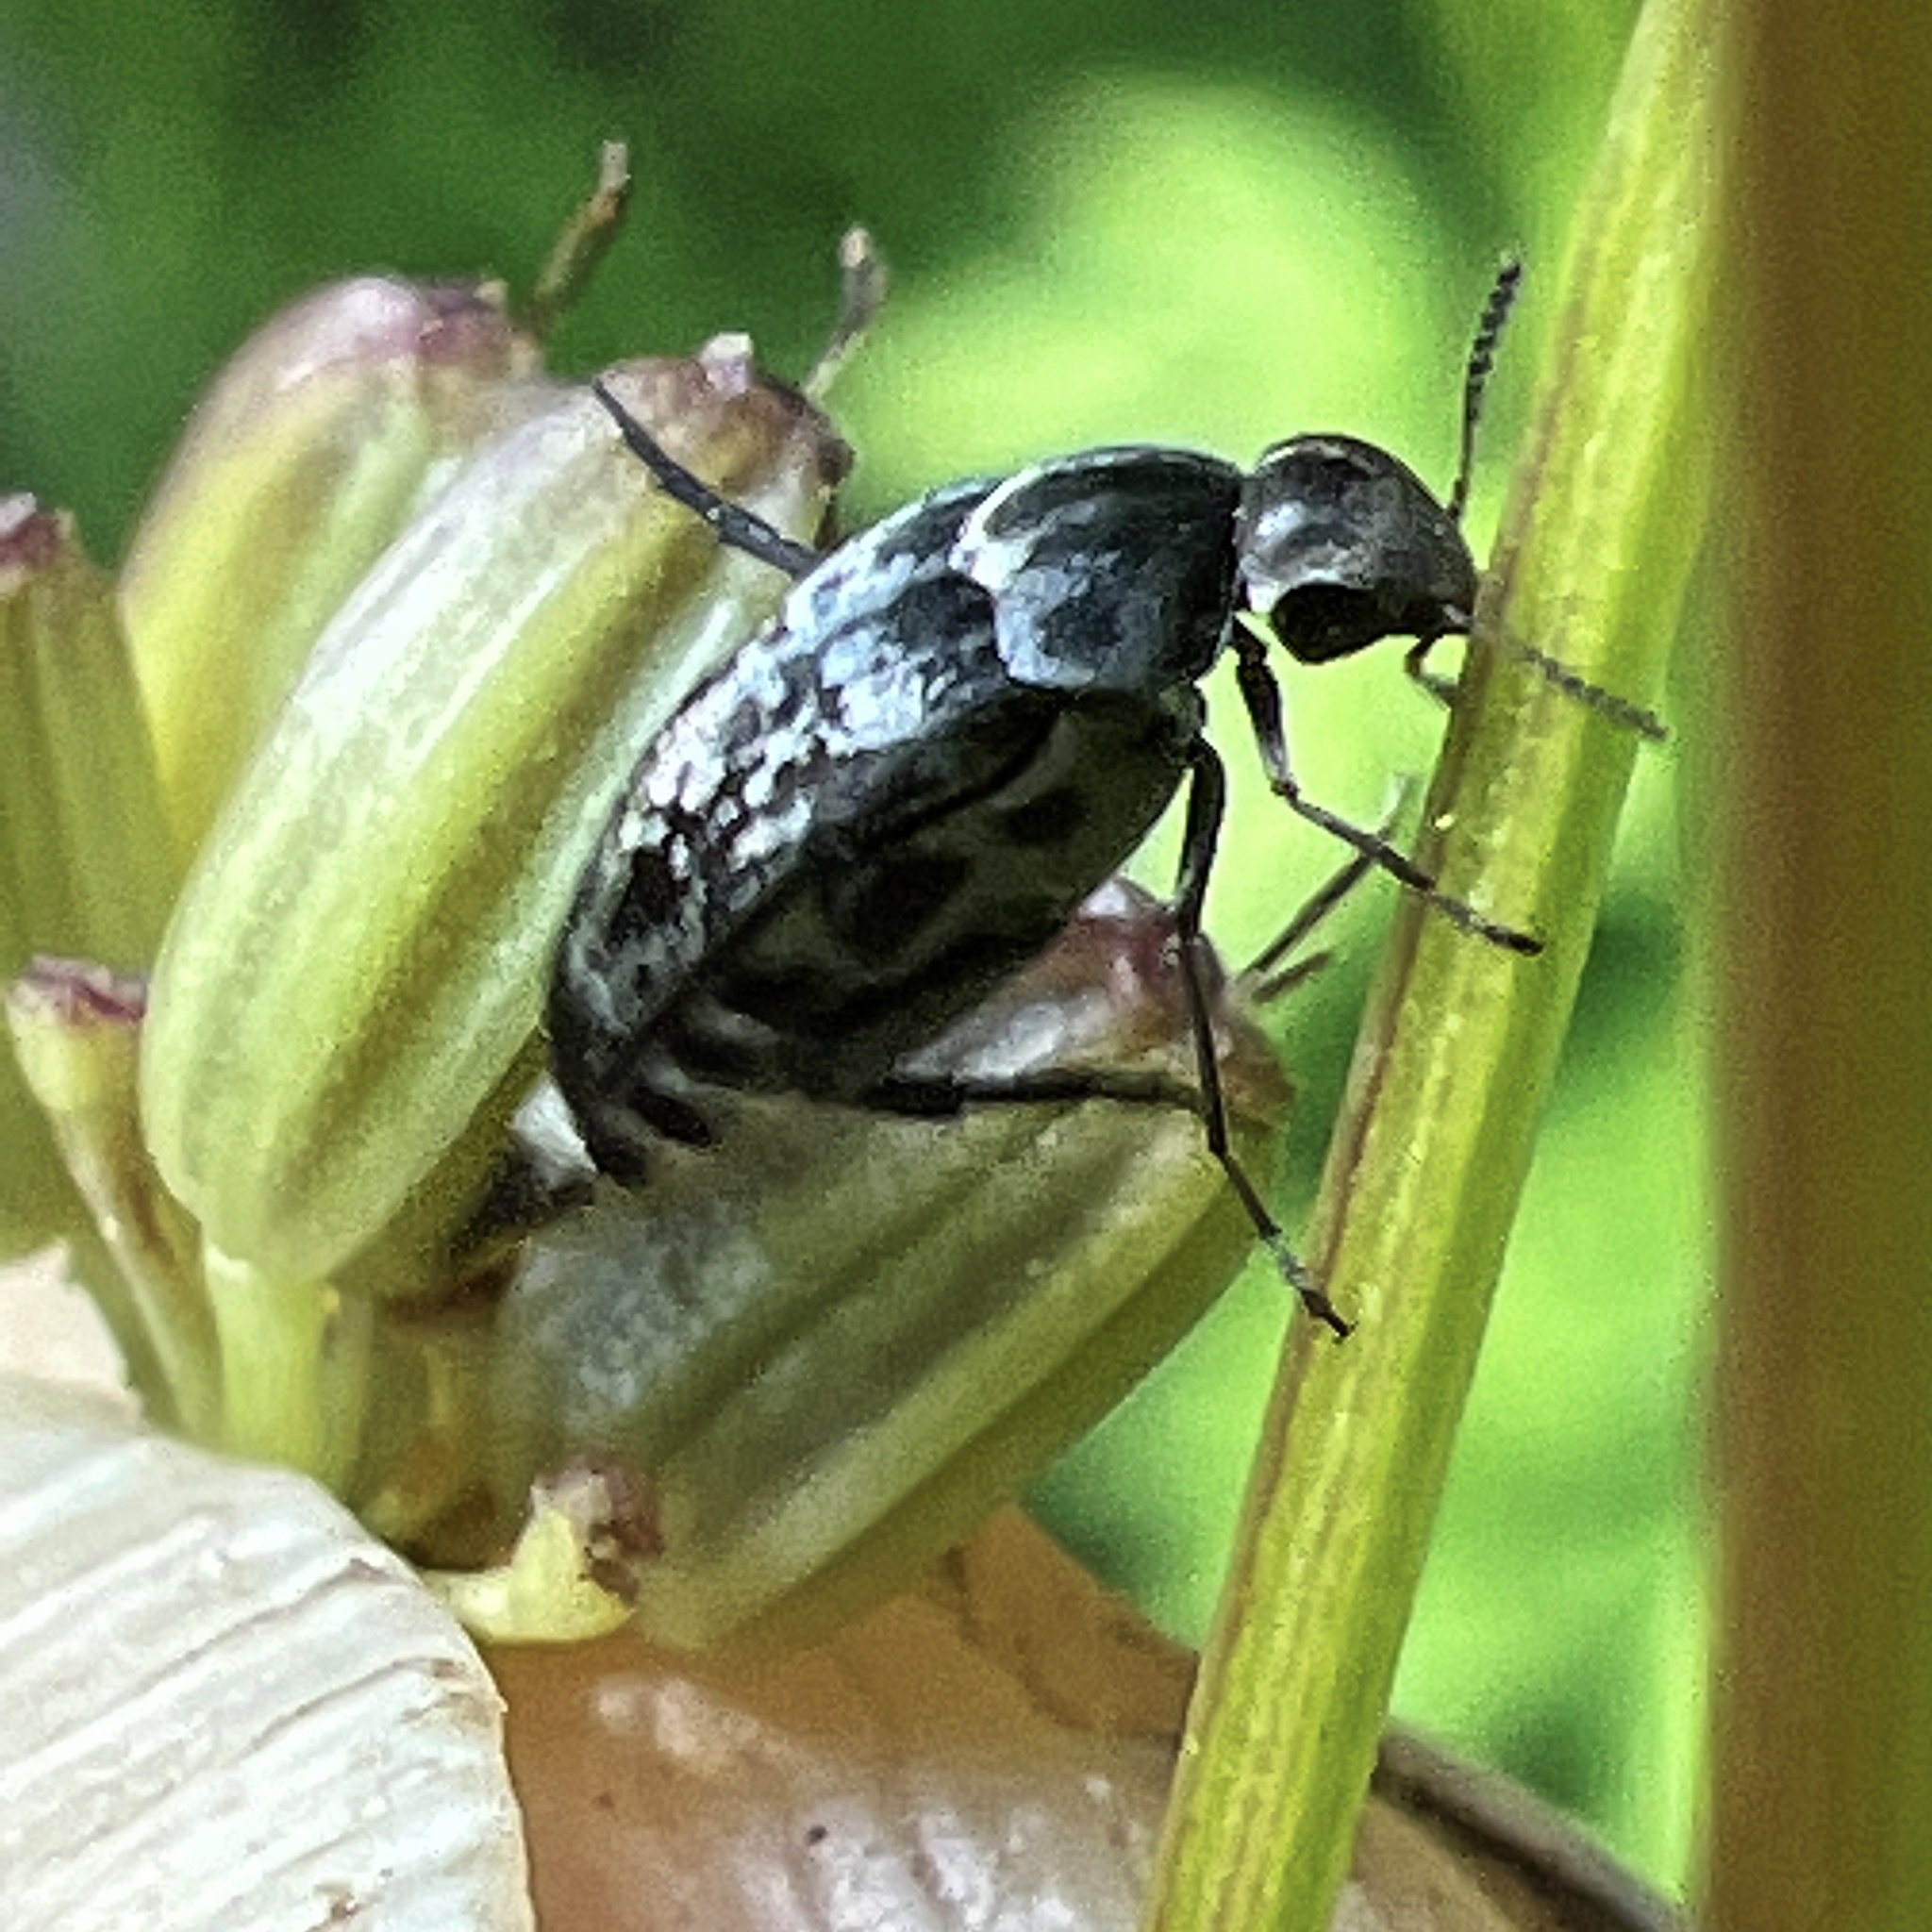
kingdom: Animalia
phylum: Arthropoda
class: Insecta
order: Coleoptera
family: Mordellidae
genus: Mordella
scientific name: Mordella marginata
